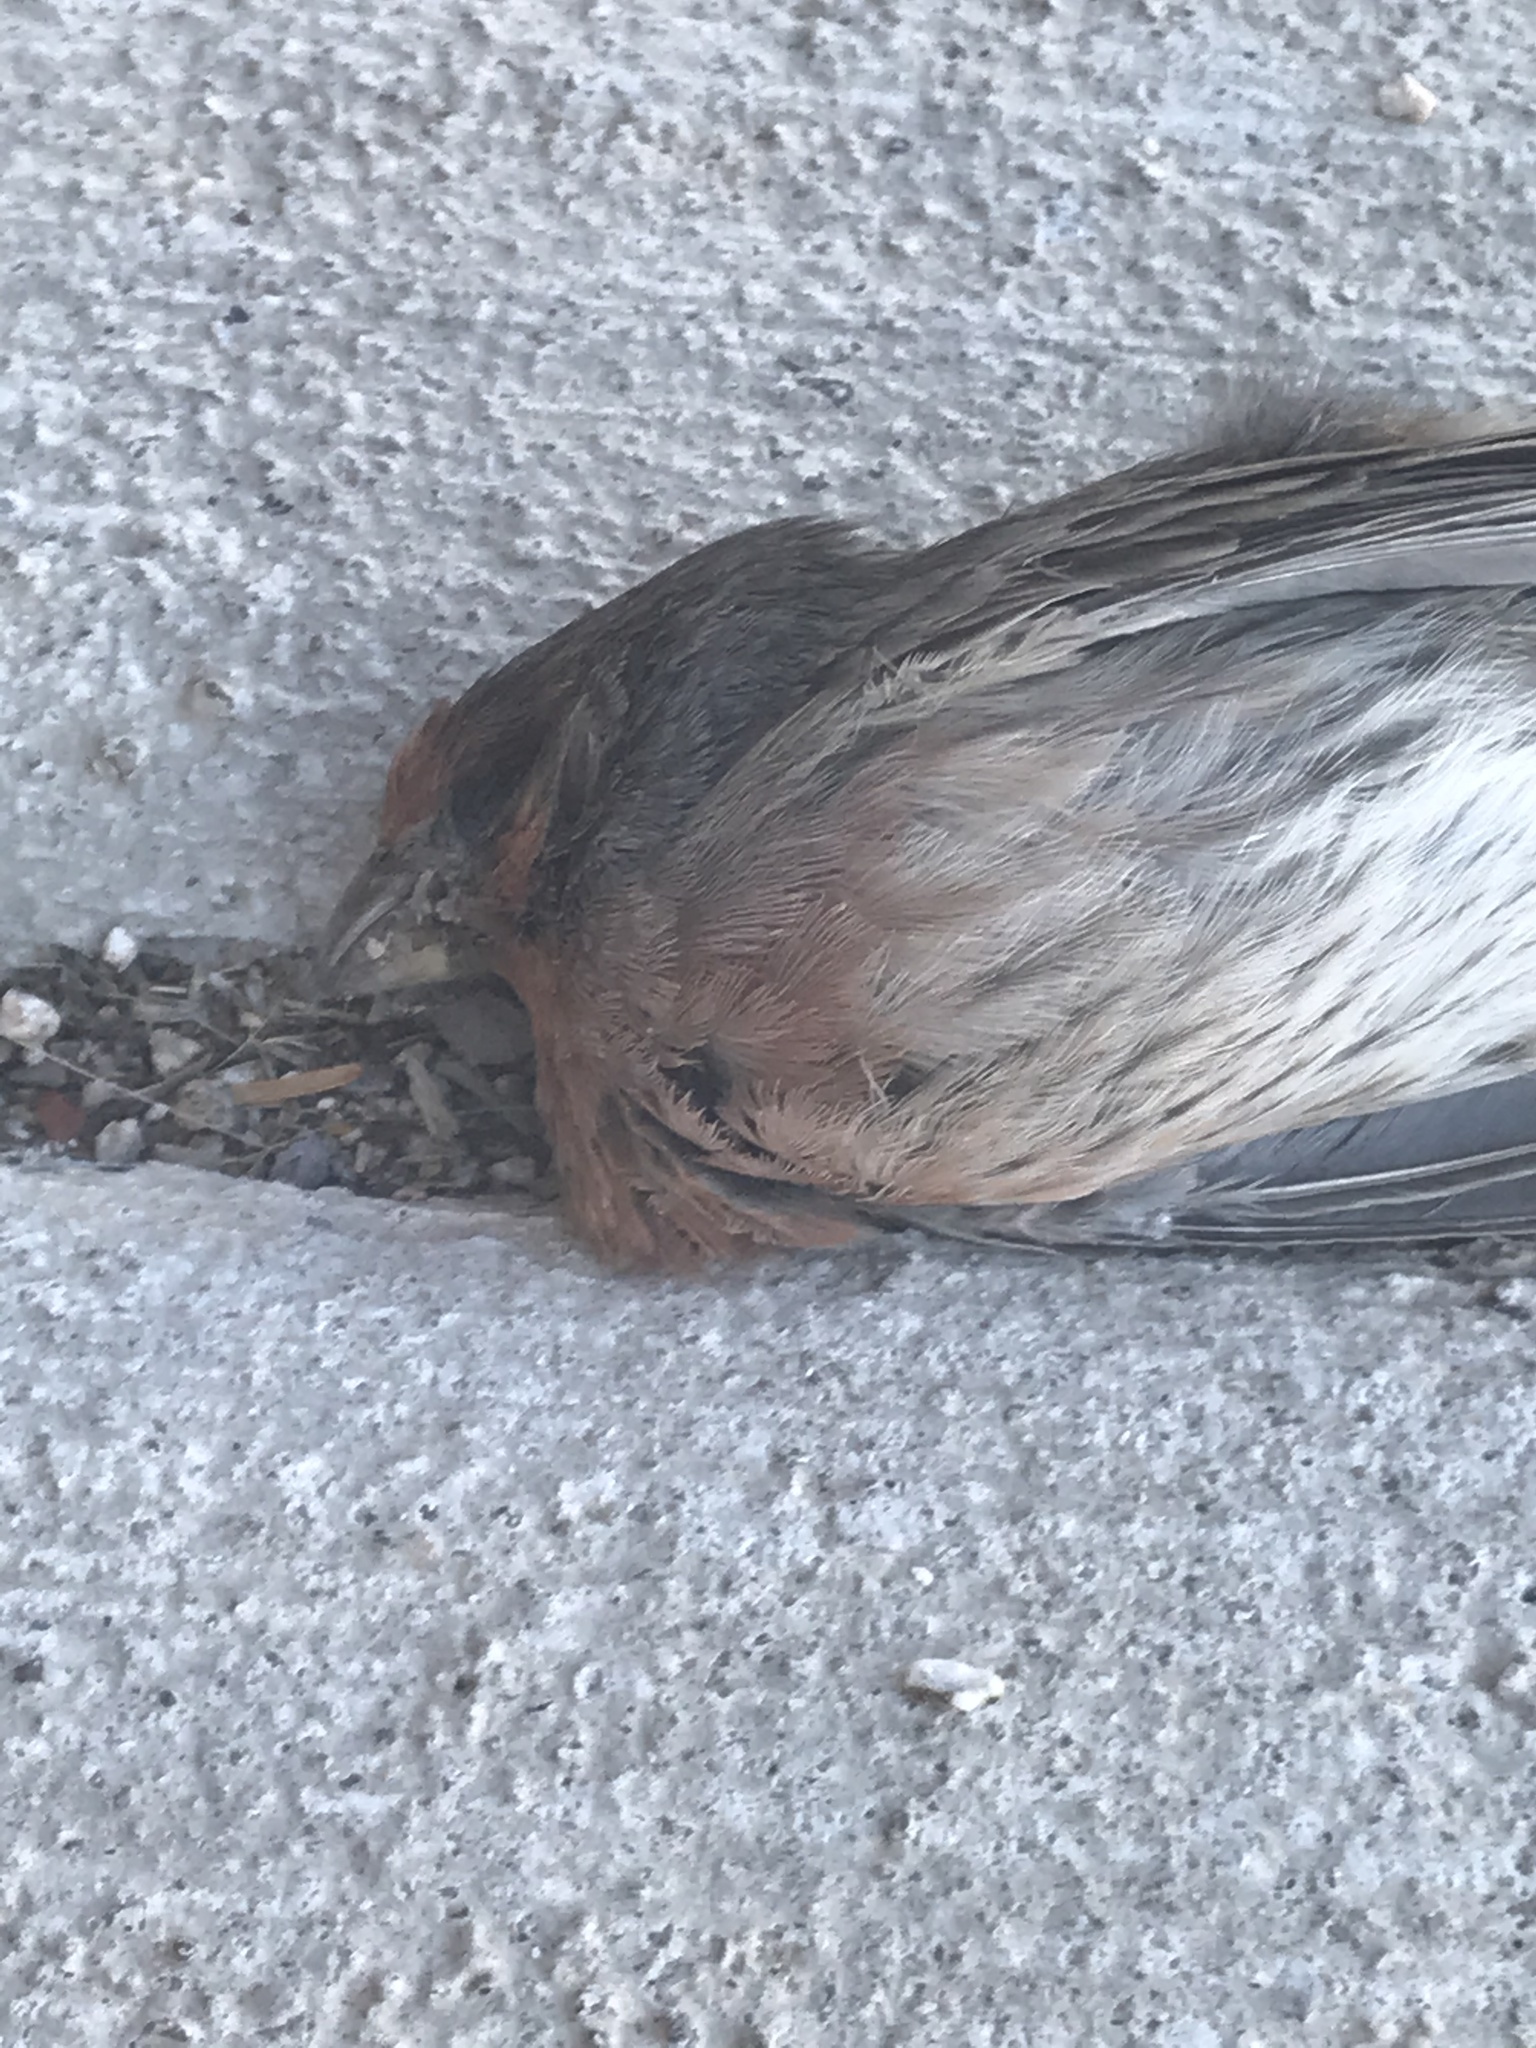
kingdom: Animalia
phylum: Chordata
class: Aves
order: Passeriformes
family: Fringillidae
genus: Haemorhous
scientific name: Haemorhous mexicanus
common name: House finch
